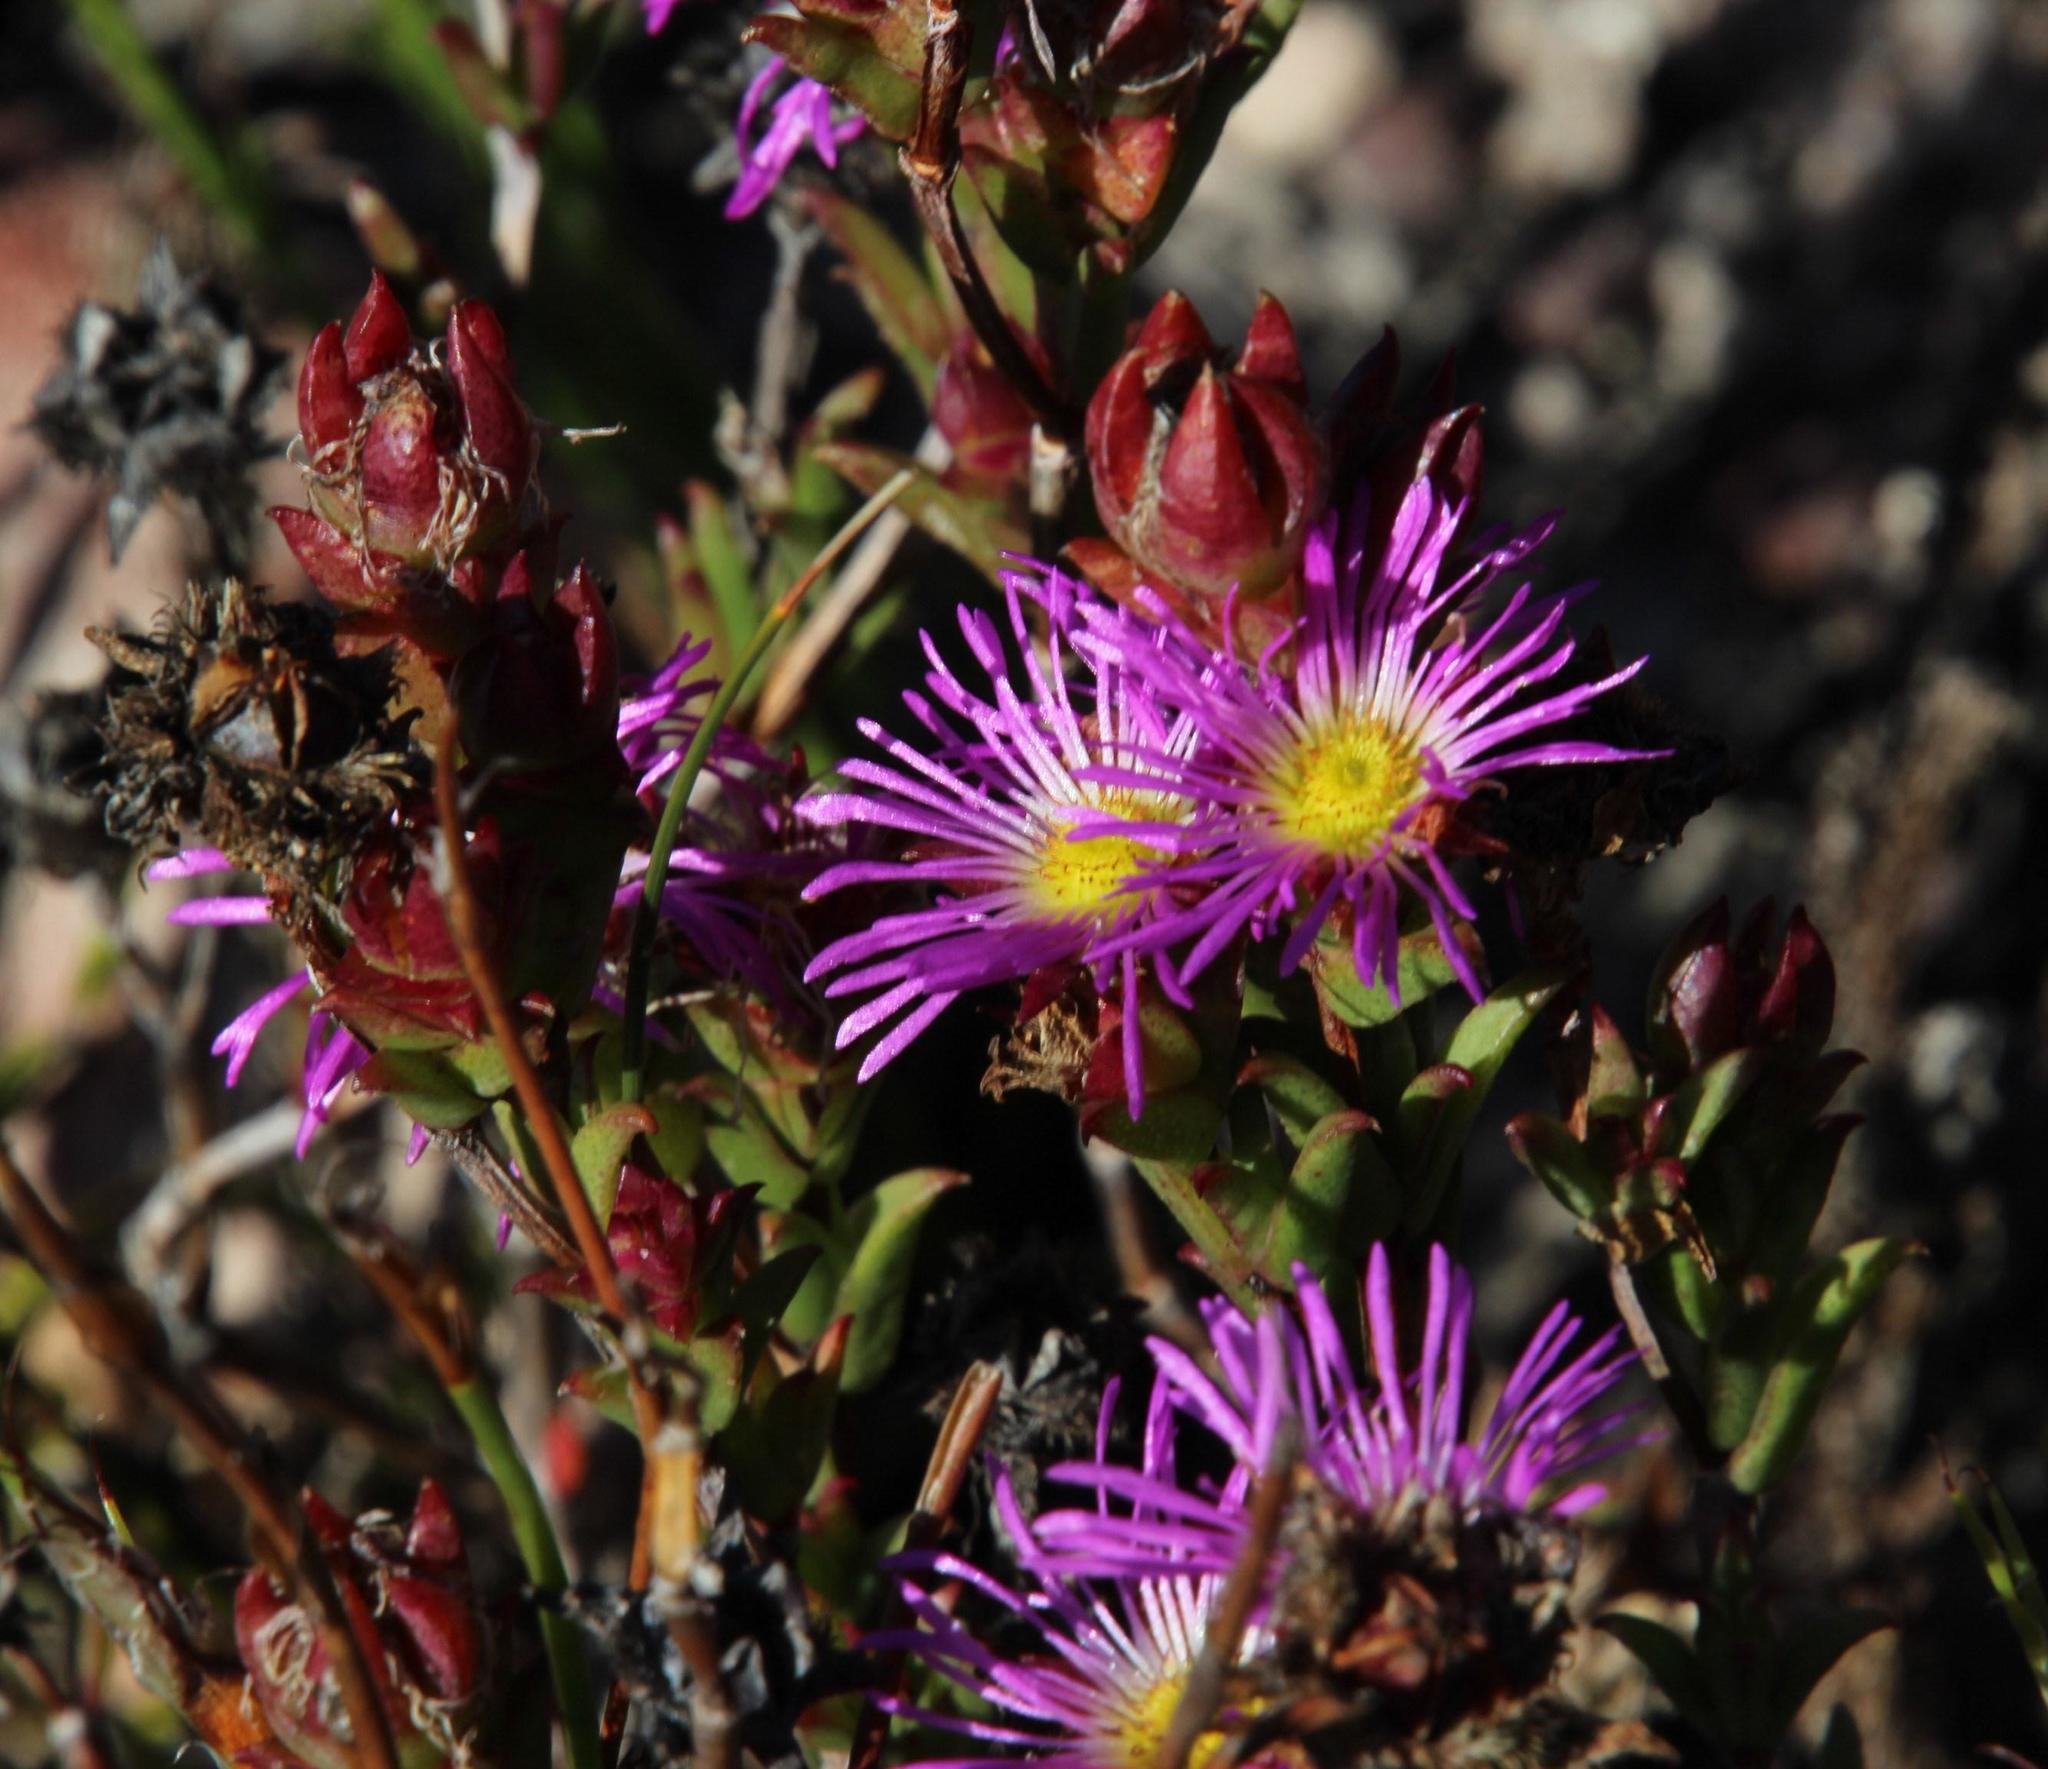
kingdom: Plantae
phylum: Tracheophyta
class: Magnoliopsida
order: Caryophyllales
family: Aizoaceae
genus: Erepsia
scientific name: Erepsia bracteata
